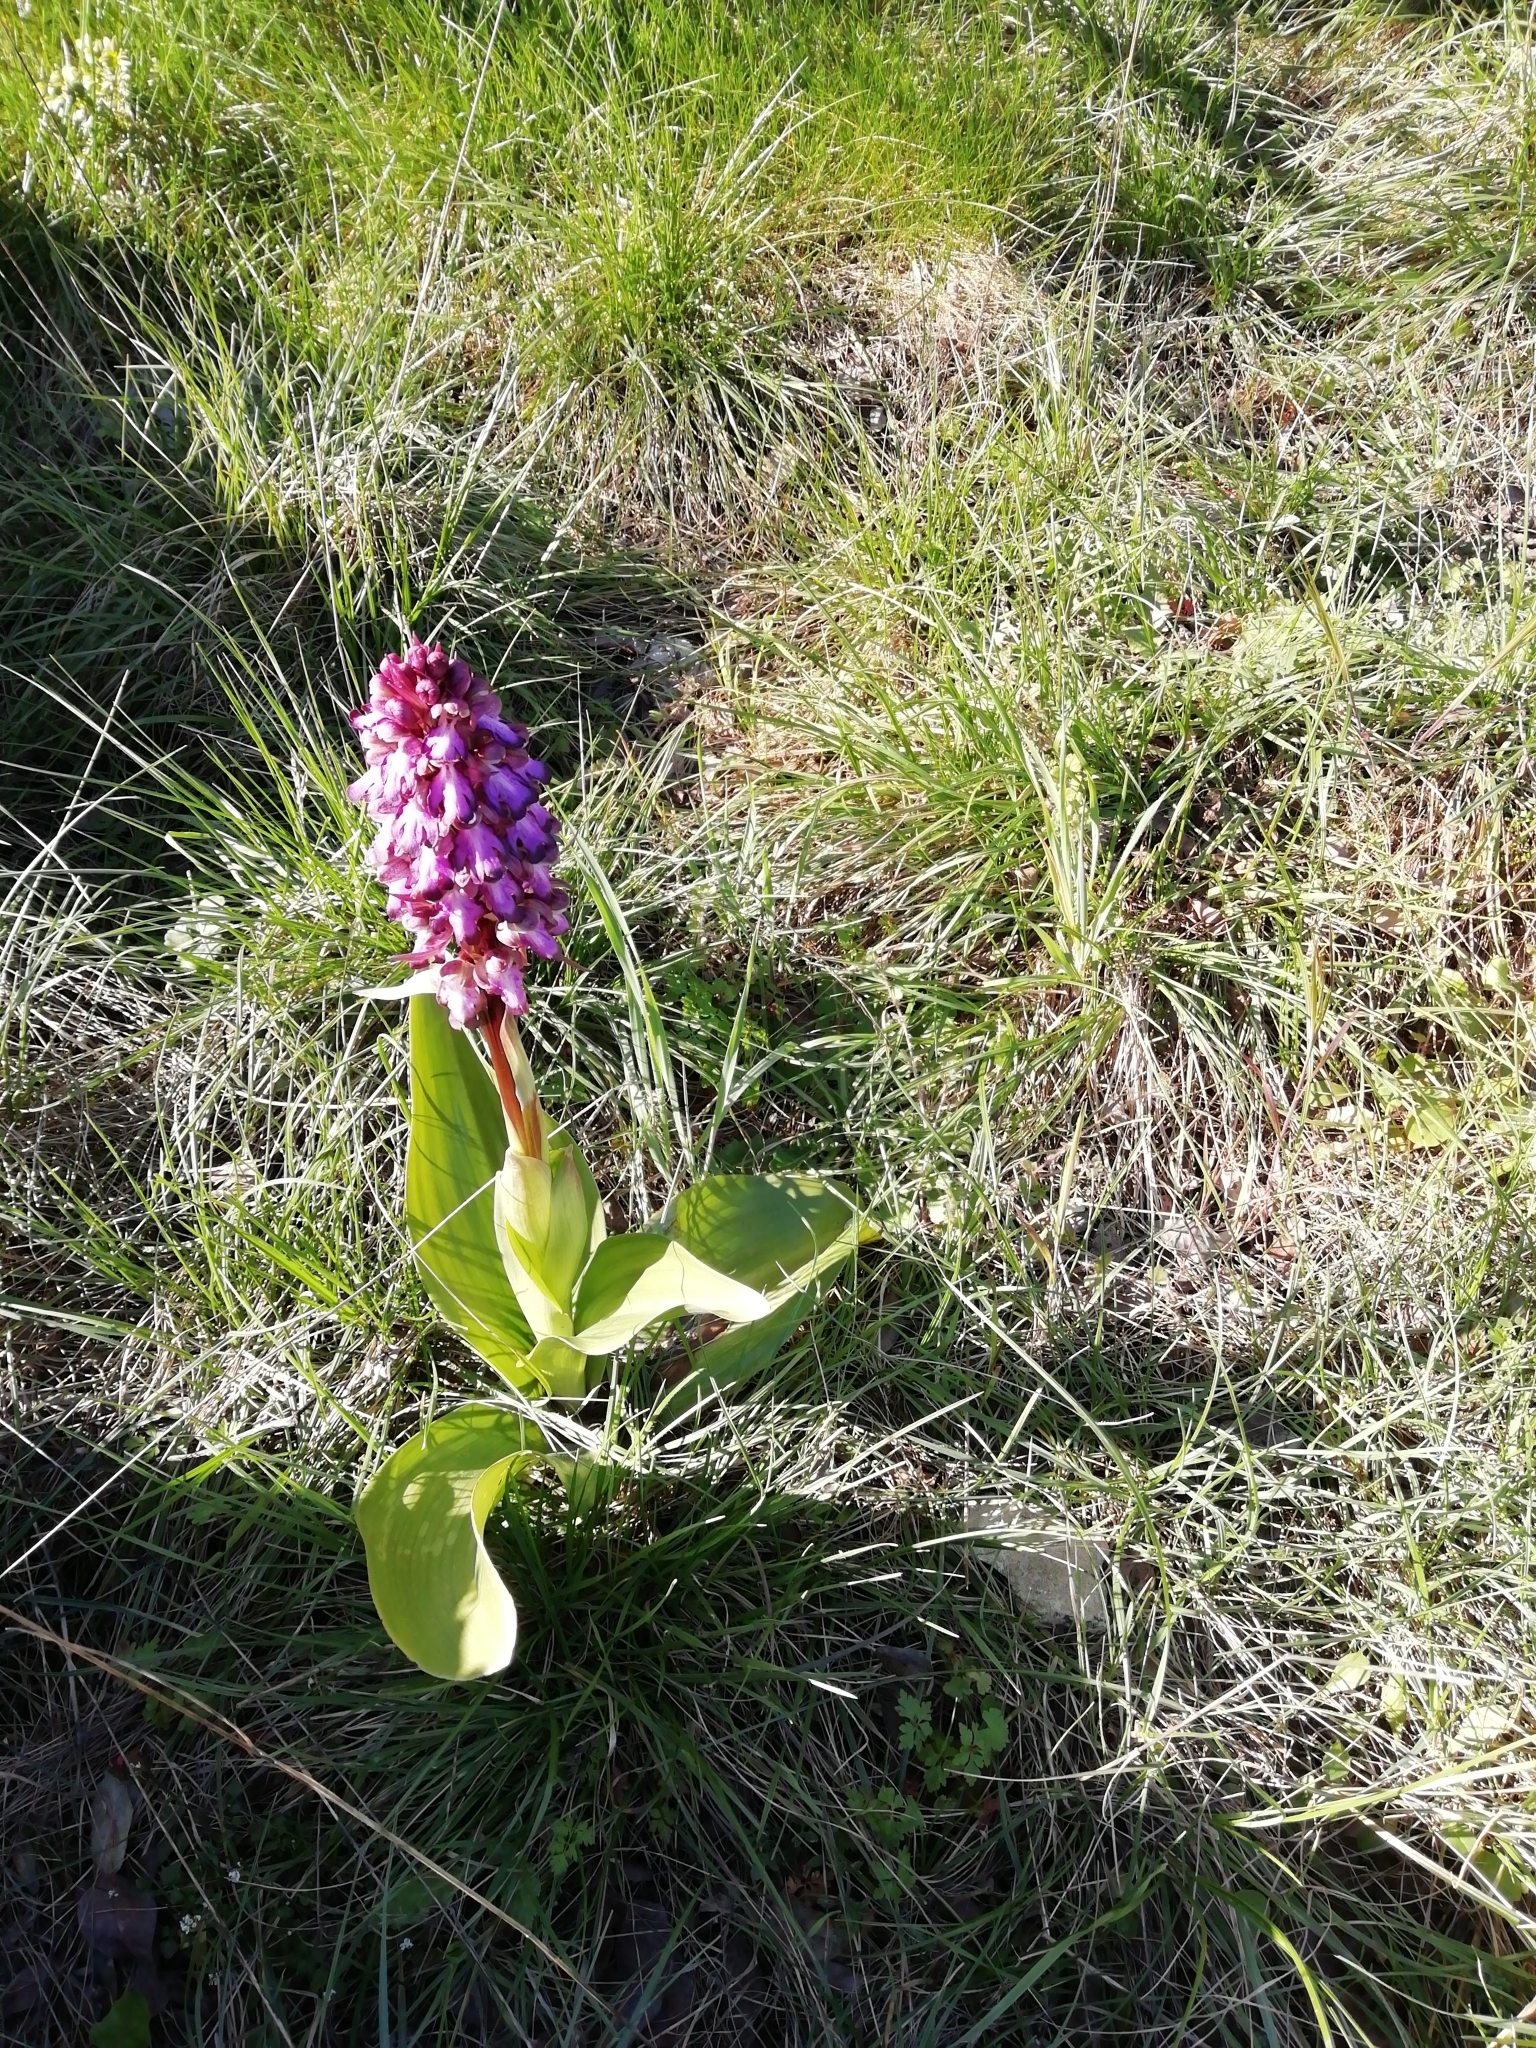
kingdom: Plantae
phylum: Tracheophyta
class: Liliopsida
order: Asparagales
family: Orchidaceae
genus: Himantoglossum
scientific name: Himantoglossum robertianum
